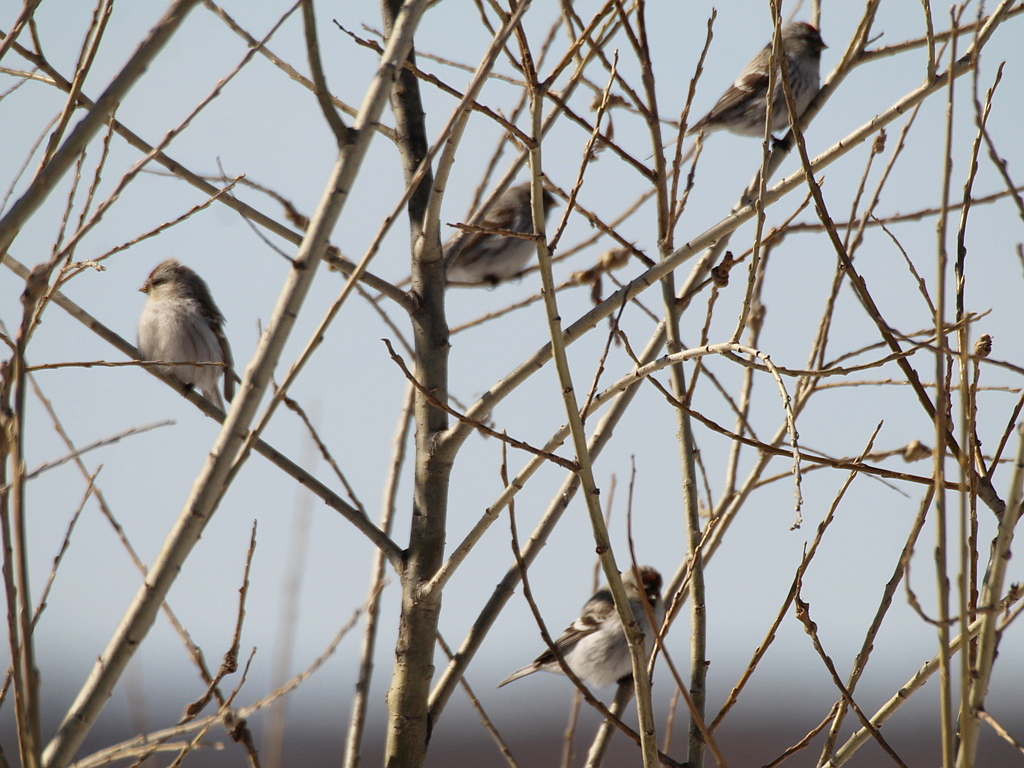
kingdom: Animalia
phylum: Chordata
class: Aves
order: Passeriformes
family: Fringillidae
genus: Acanthis
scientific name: Acanthis hornemanni
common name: Arctic redpoll
